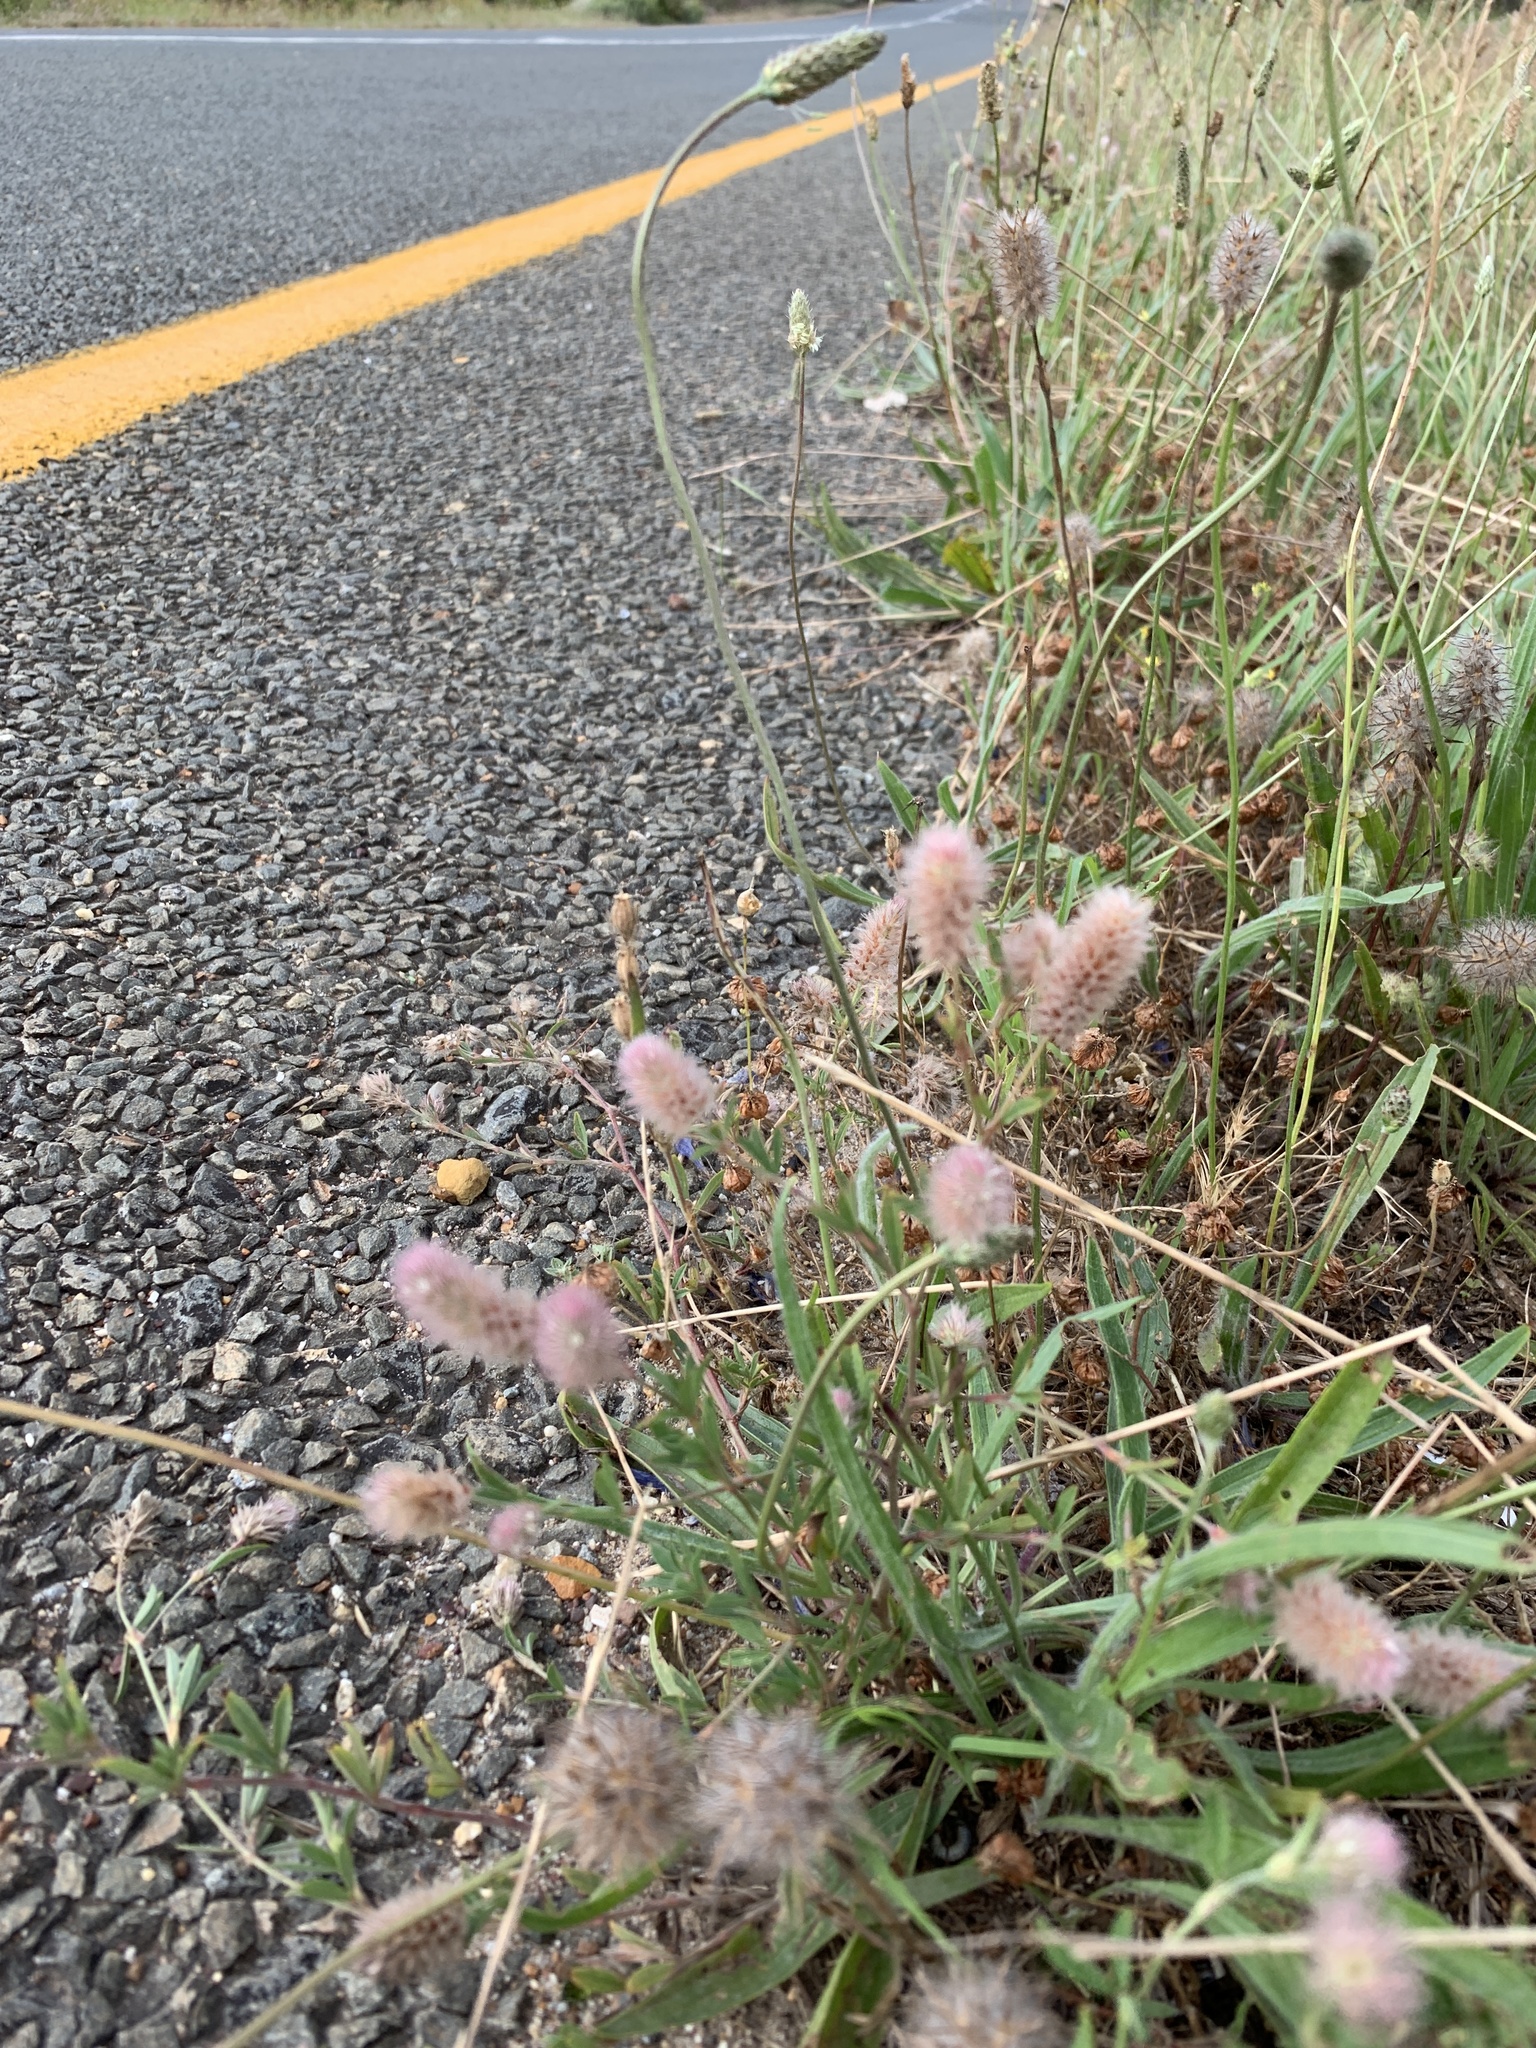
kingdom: Plantae
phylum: Tracheophyta
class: Magnoliopsida
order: Fabales
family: Fabaceae
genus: Trifolium
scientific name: Trifolium arvense
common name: Hare's-foot clover
